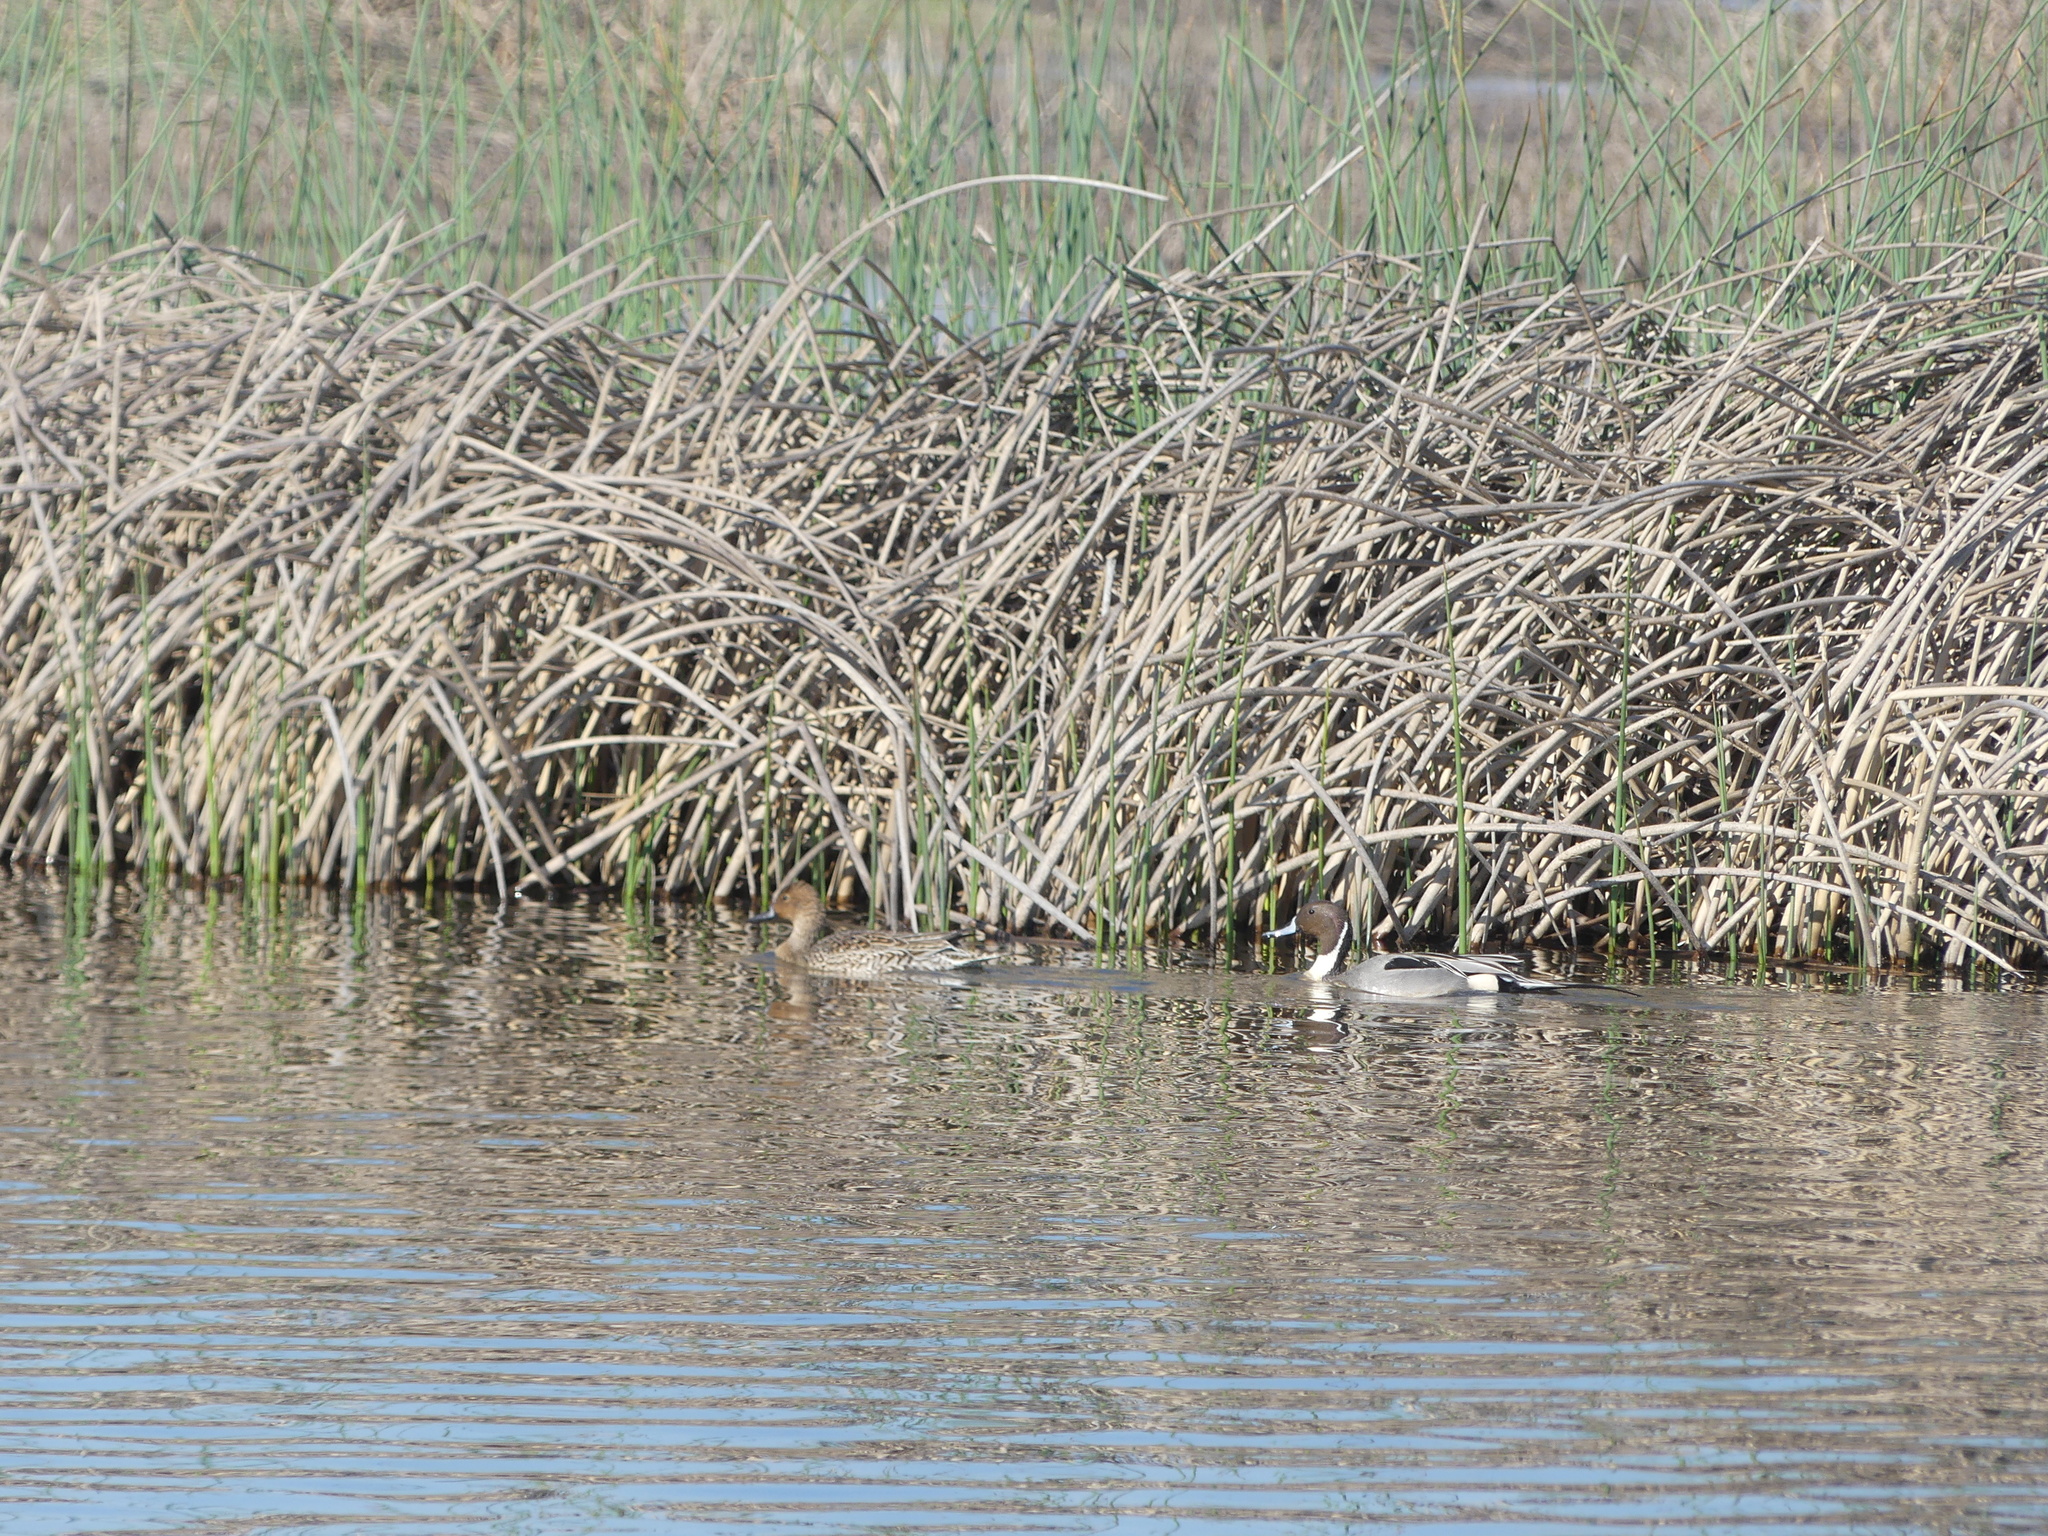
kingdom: Animalia
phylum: Chordata
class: Aves
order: Anseriformes
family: Anatidae
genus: Anas
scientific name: Anas acuta
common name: Northern pintail
